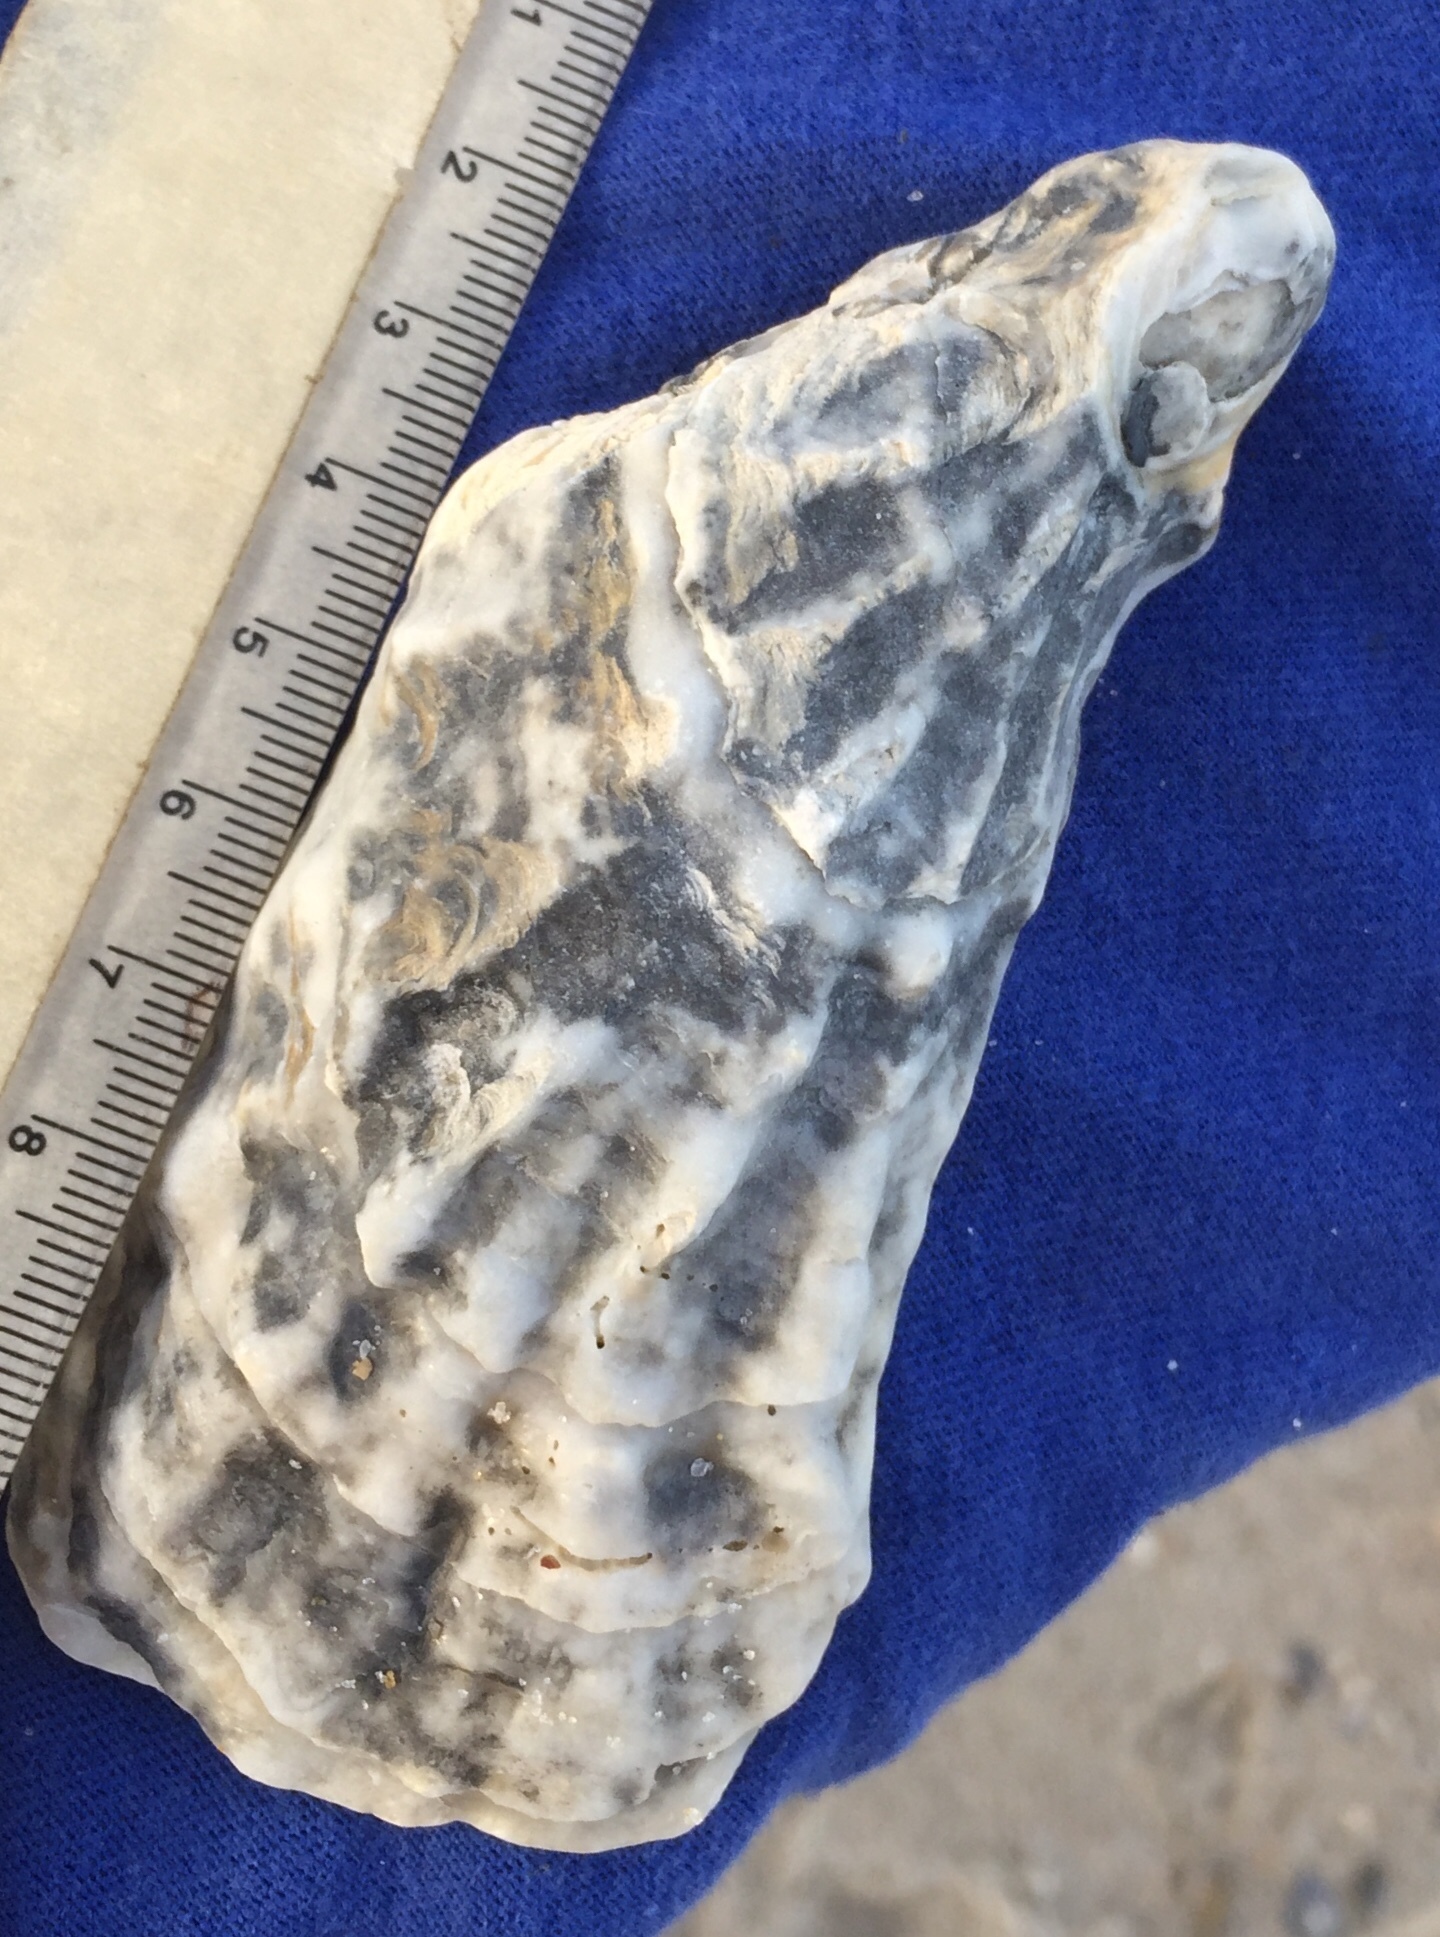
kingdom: Animalia
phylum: Mollusca
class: Bivalvia
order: Ostreida
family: Ostreidae
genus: Crassostrea
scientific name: Crassostrea virginica
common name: American oyster
